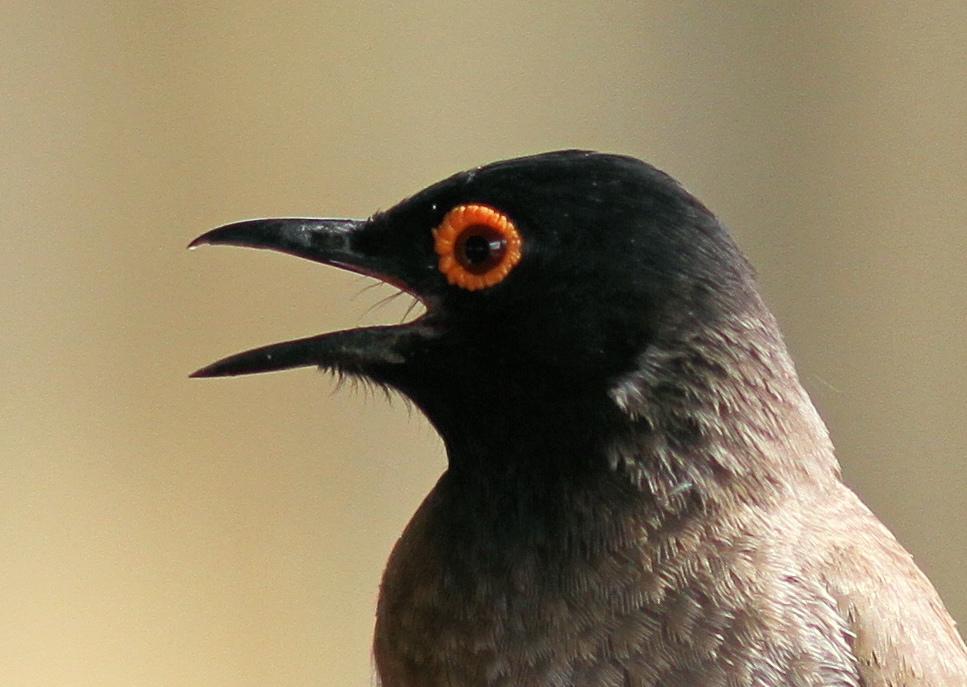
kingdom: Animalia
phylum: Chordata
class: Aves
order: Passeriformes
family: Pycnonotidae
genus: Pycnonotus
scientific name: Pycnonotus nigricans
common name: African red-eyed bulbul
